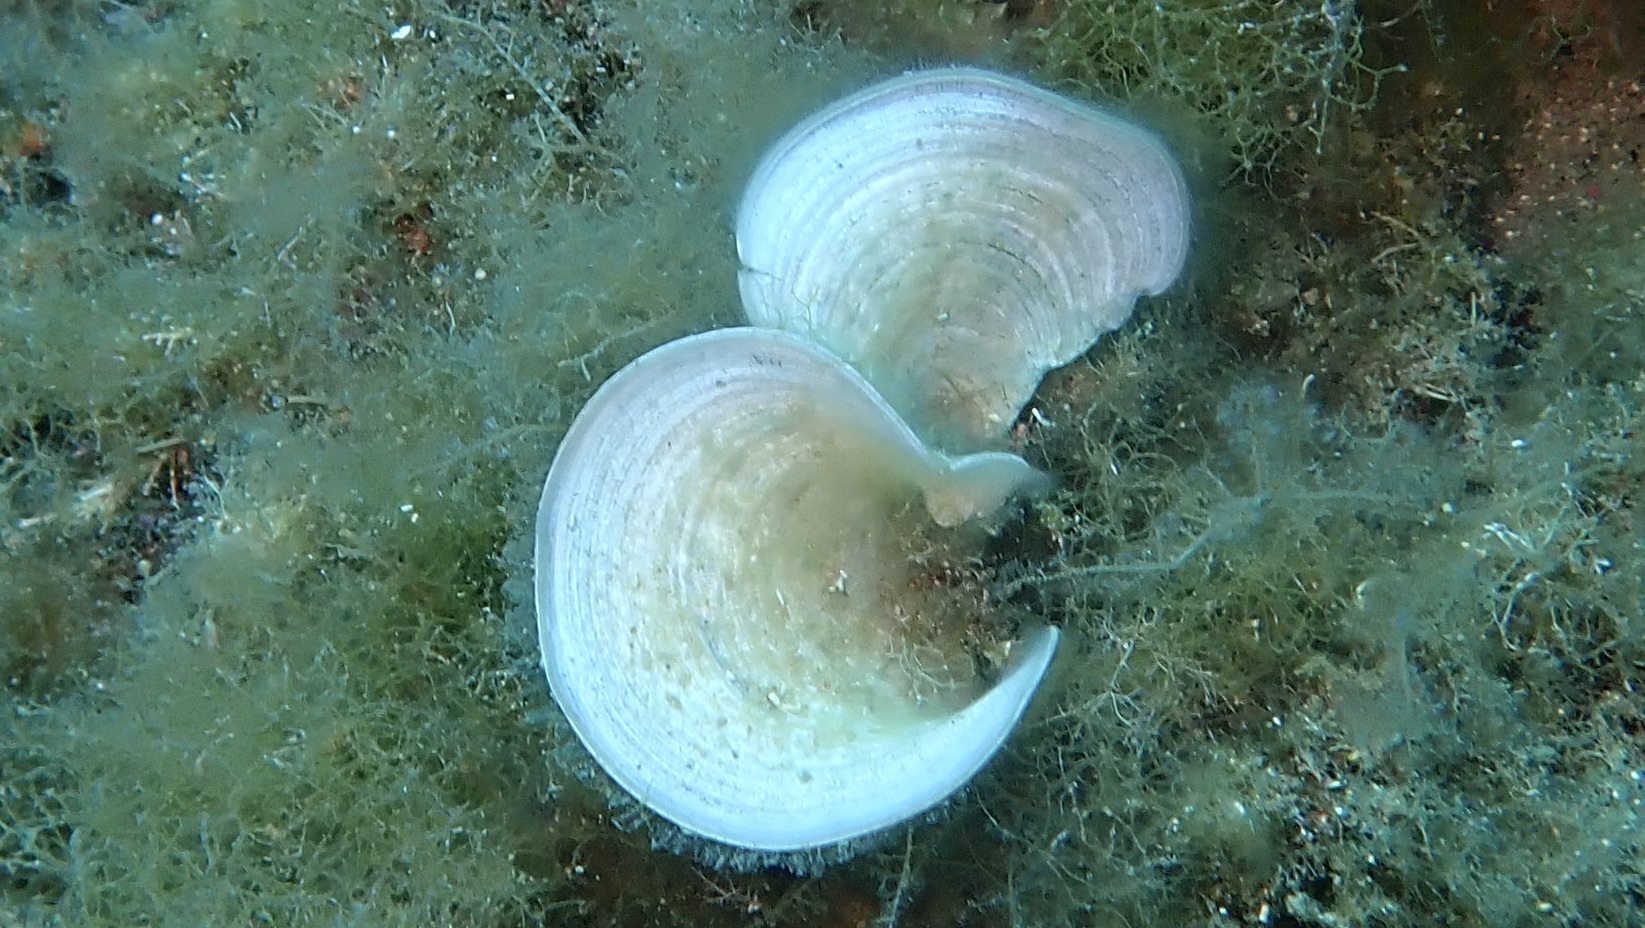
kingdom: Chromista
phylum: Ochrophyta
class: Phaeophyceae
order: Dictyotales
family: Dictyotaceae
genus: Padina
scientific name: Padina pavonica
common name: Turkey feather alga
